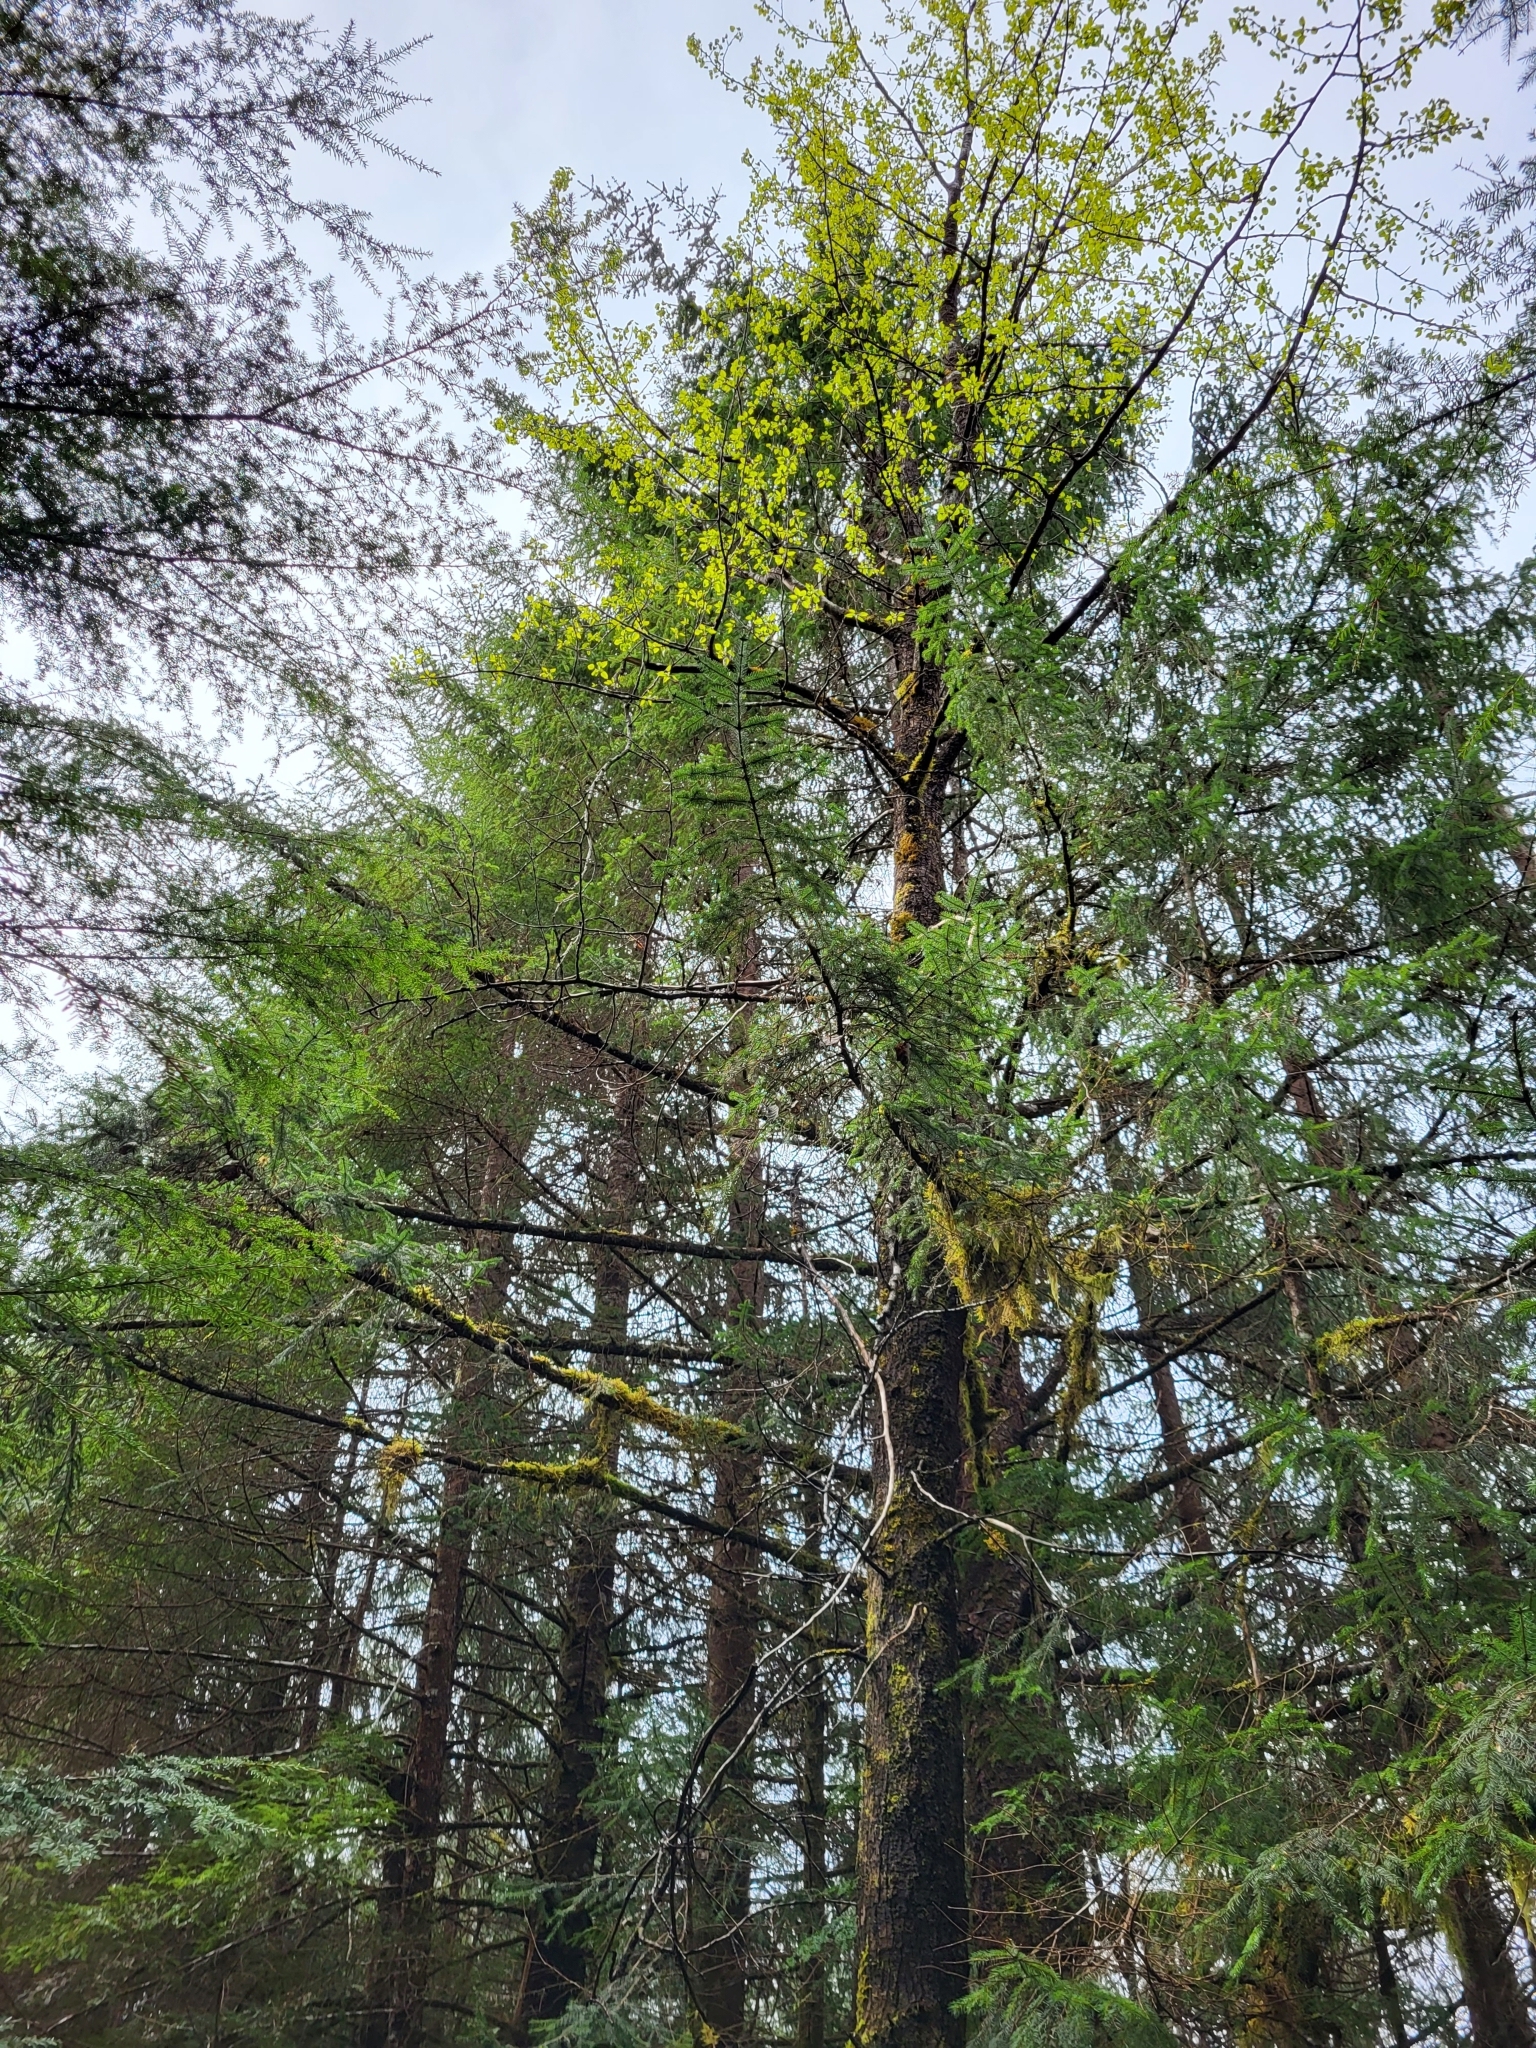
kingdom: Plantae
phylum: Tracheophyta
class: Magnoliopsida
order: Malpighiales
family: Salicaceae
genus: Populus
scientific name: Populus trichocarpa
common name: Black cottonwood
